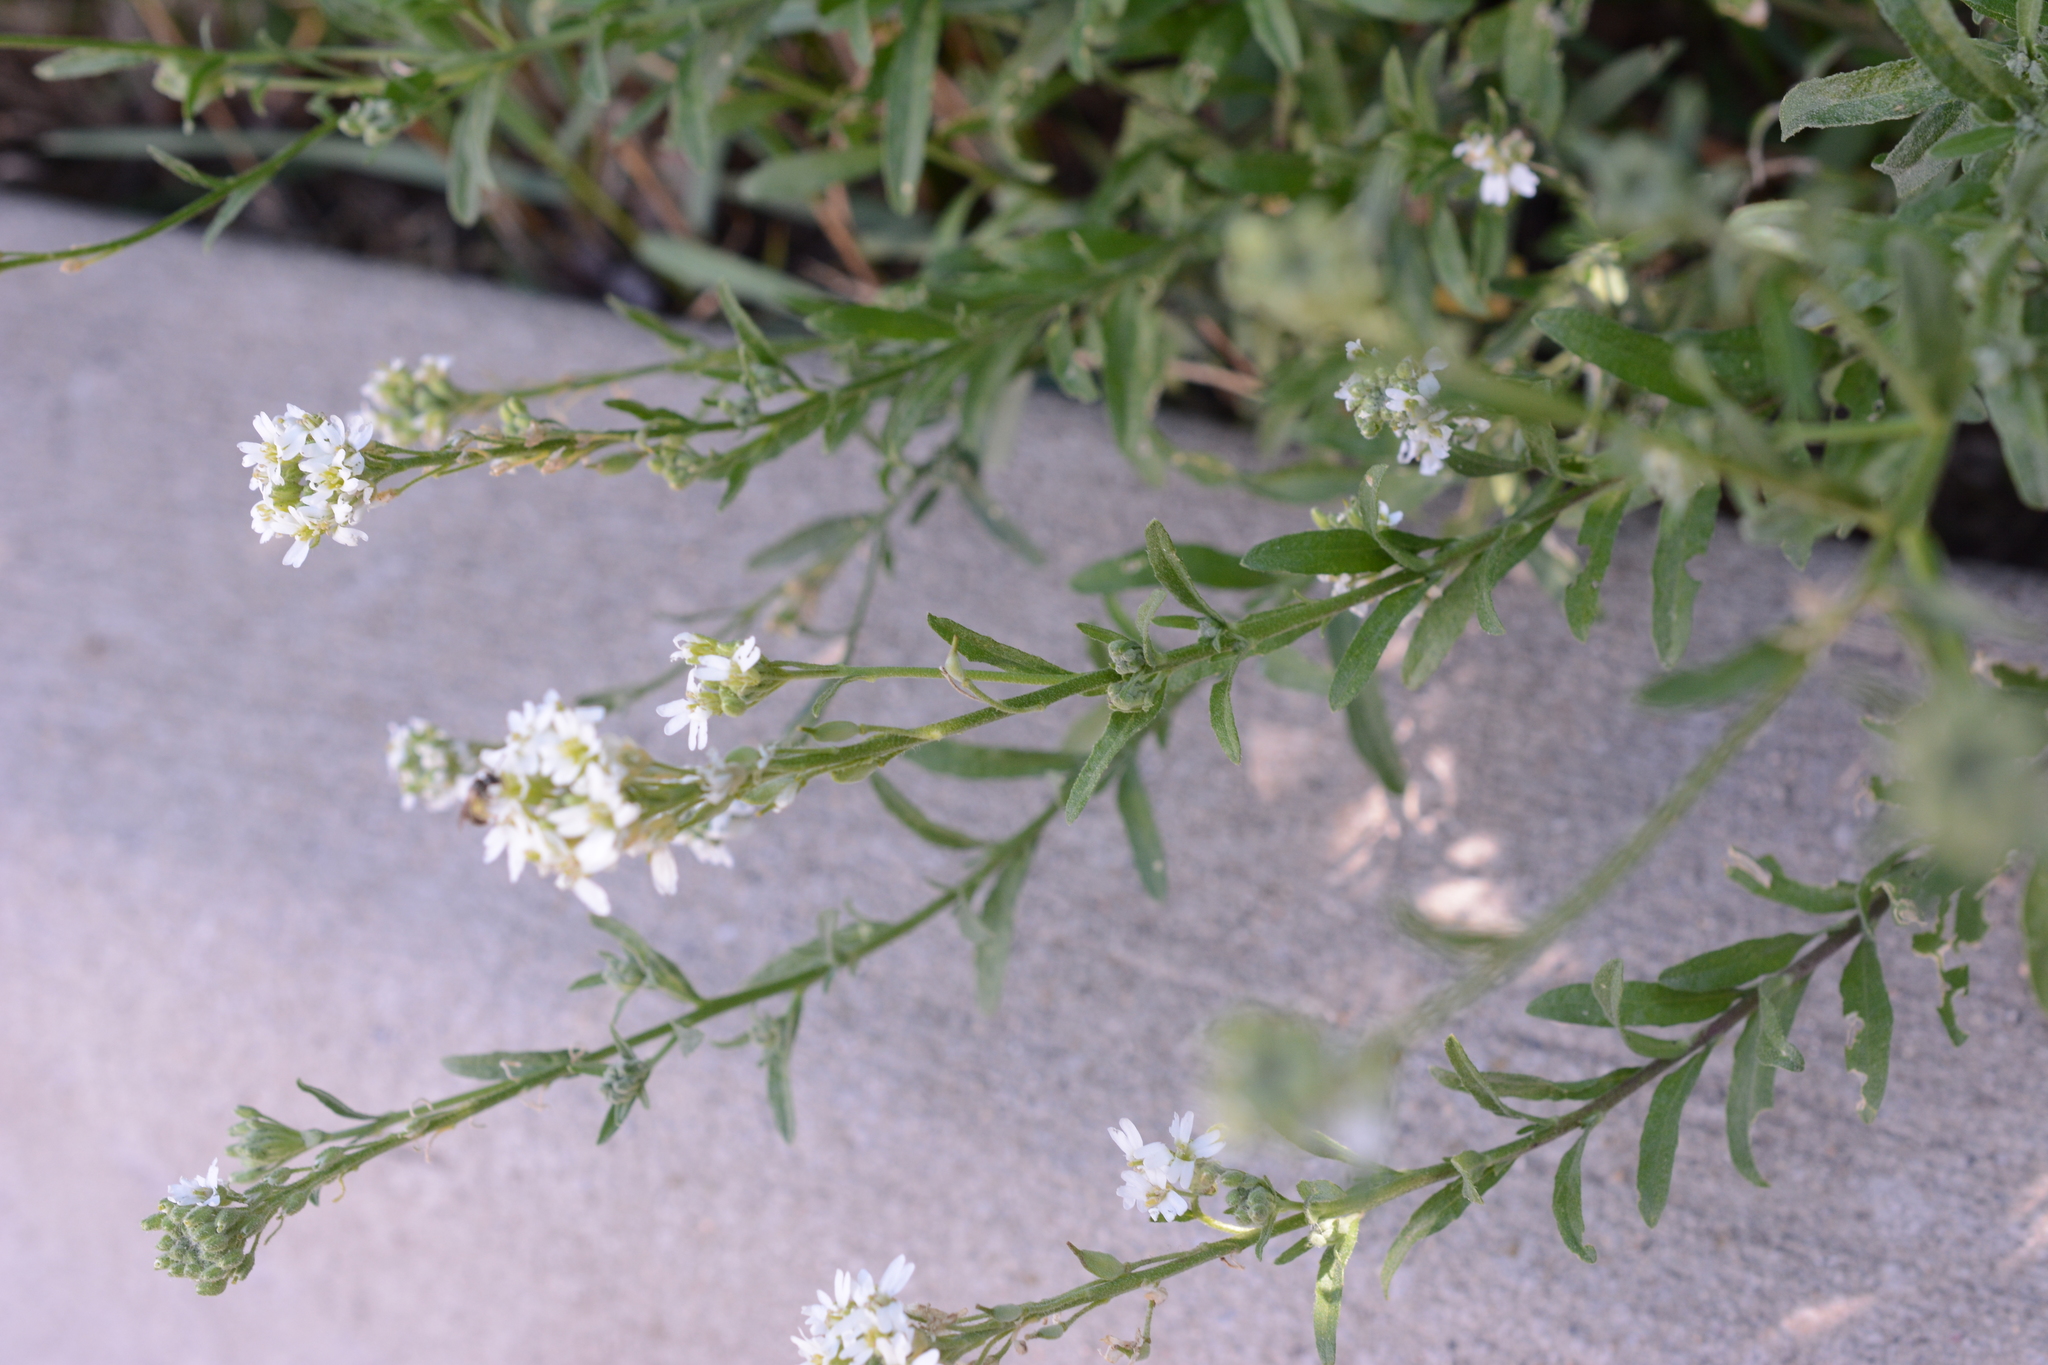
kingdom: Plantae
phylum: Tracheophyta
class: Magnoliopsida
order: Brassicales
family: Brassicaceae
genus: Berteroa
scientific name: Berteroa incana
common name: Hoary alison
